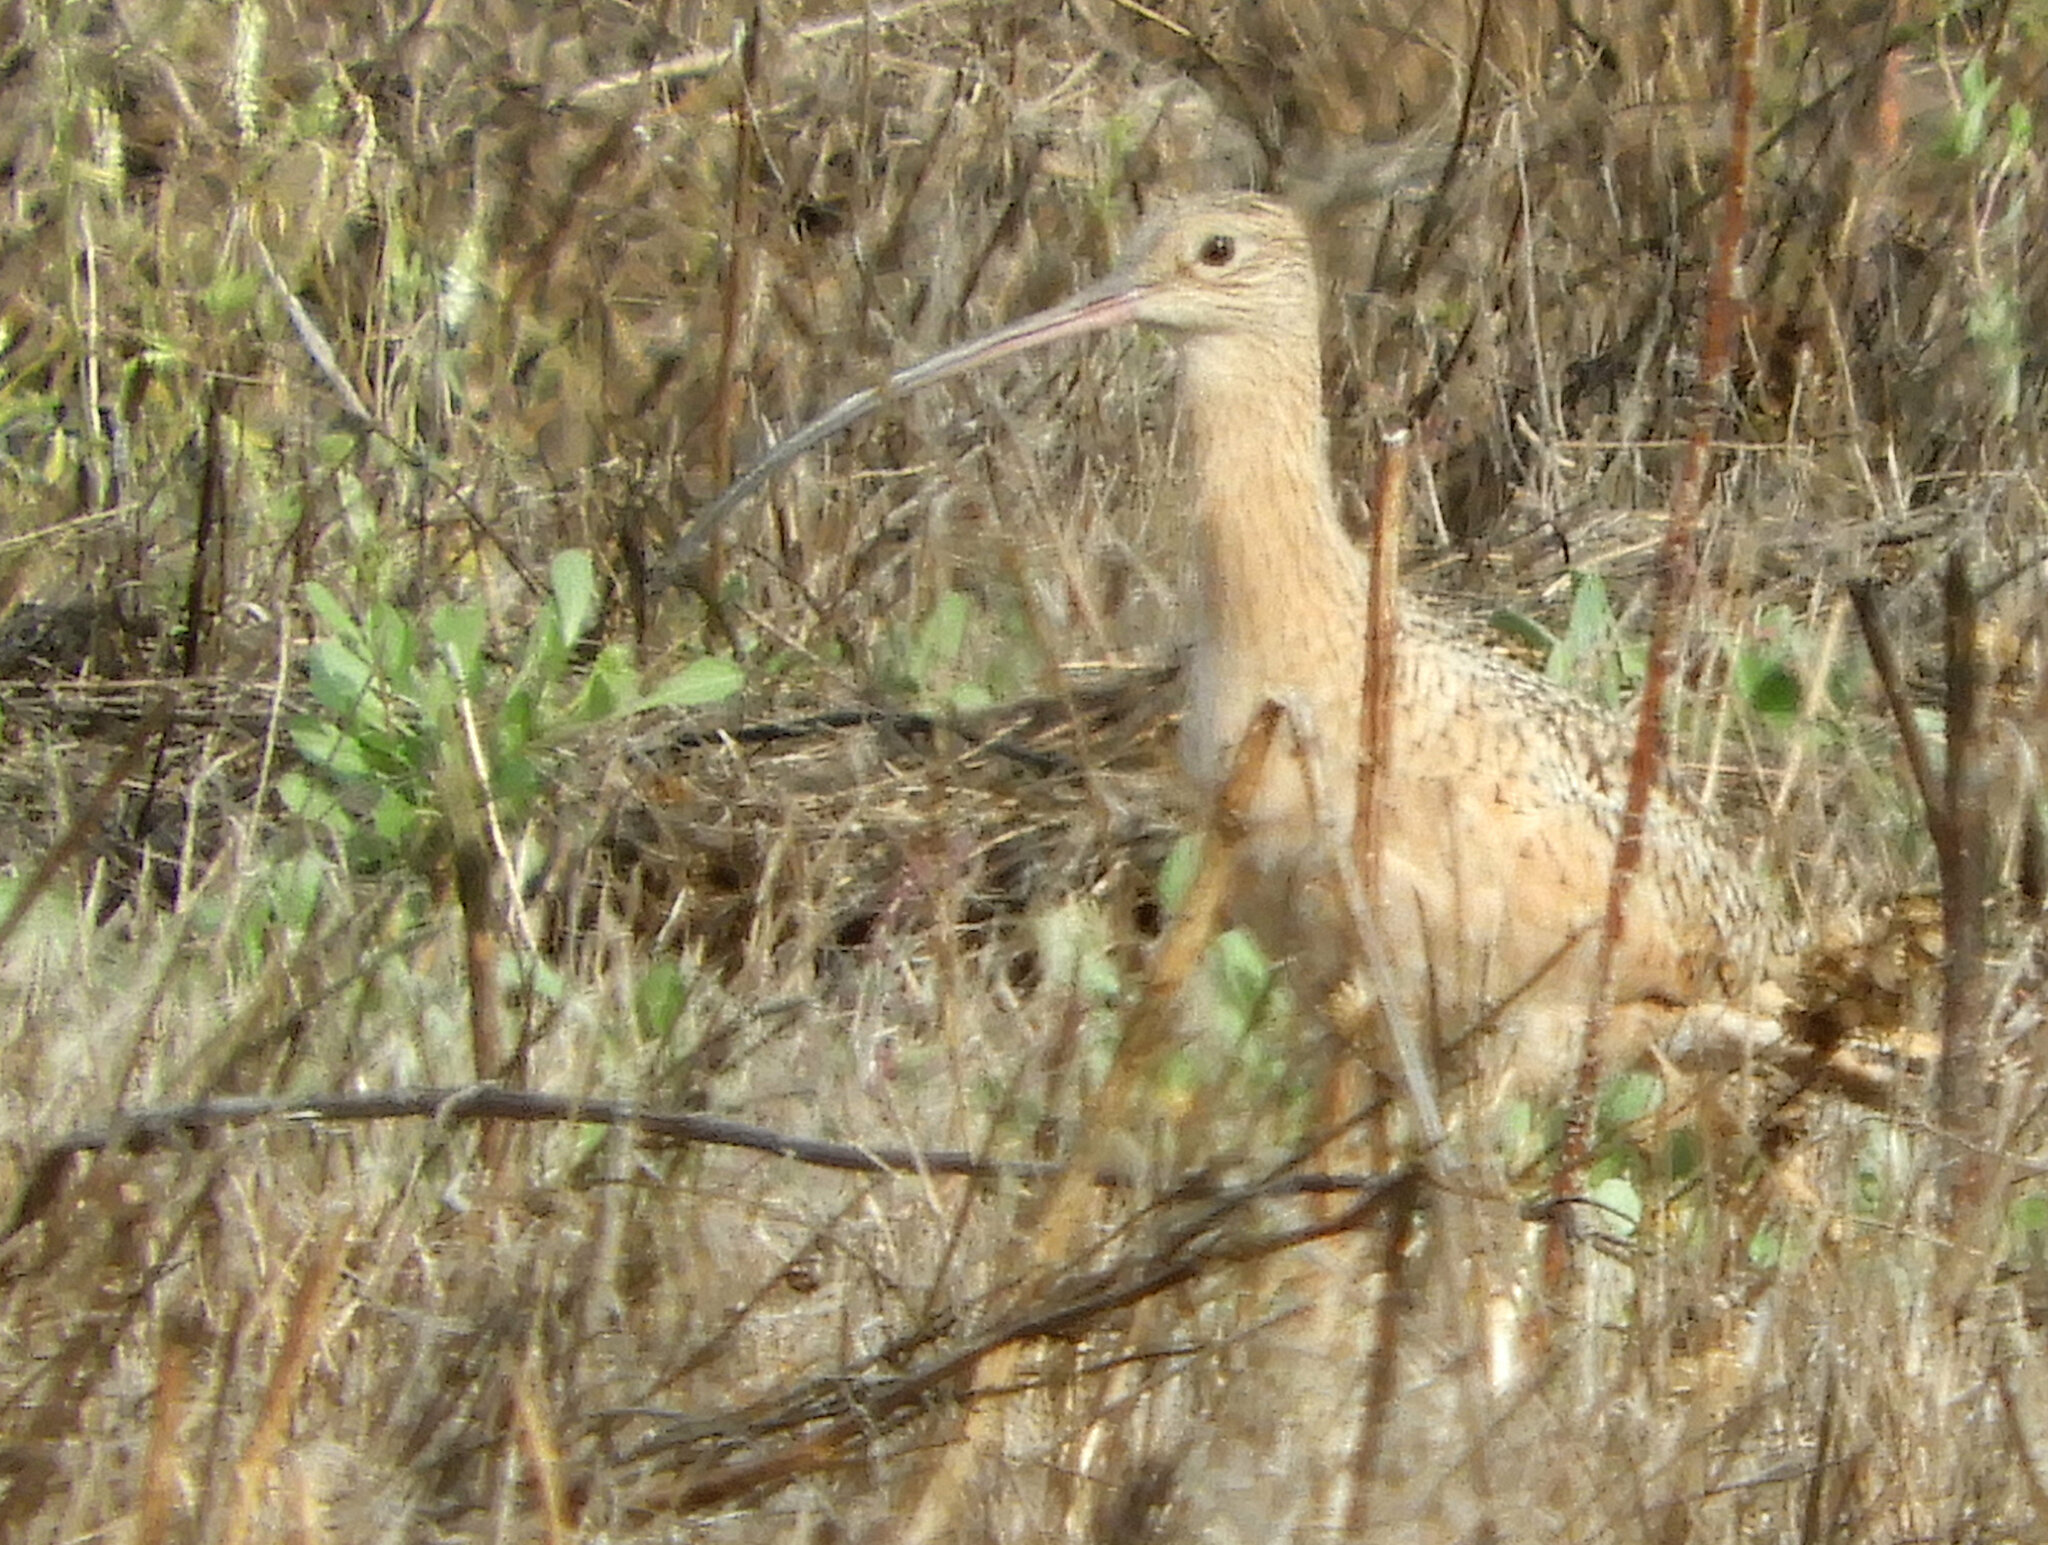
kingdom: Animalia
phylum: Chordata
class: Aves
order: Charadriiformes
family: Scolopacidae
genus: Numenius
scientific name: Numenius americanus
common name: Long-billed curlew
